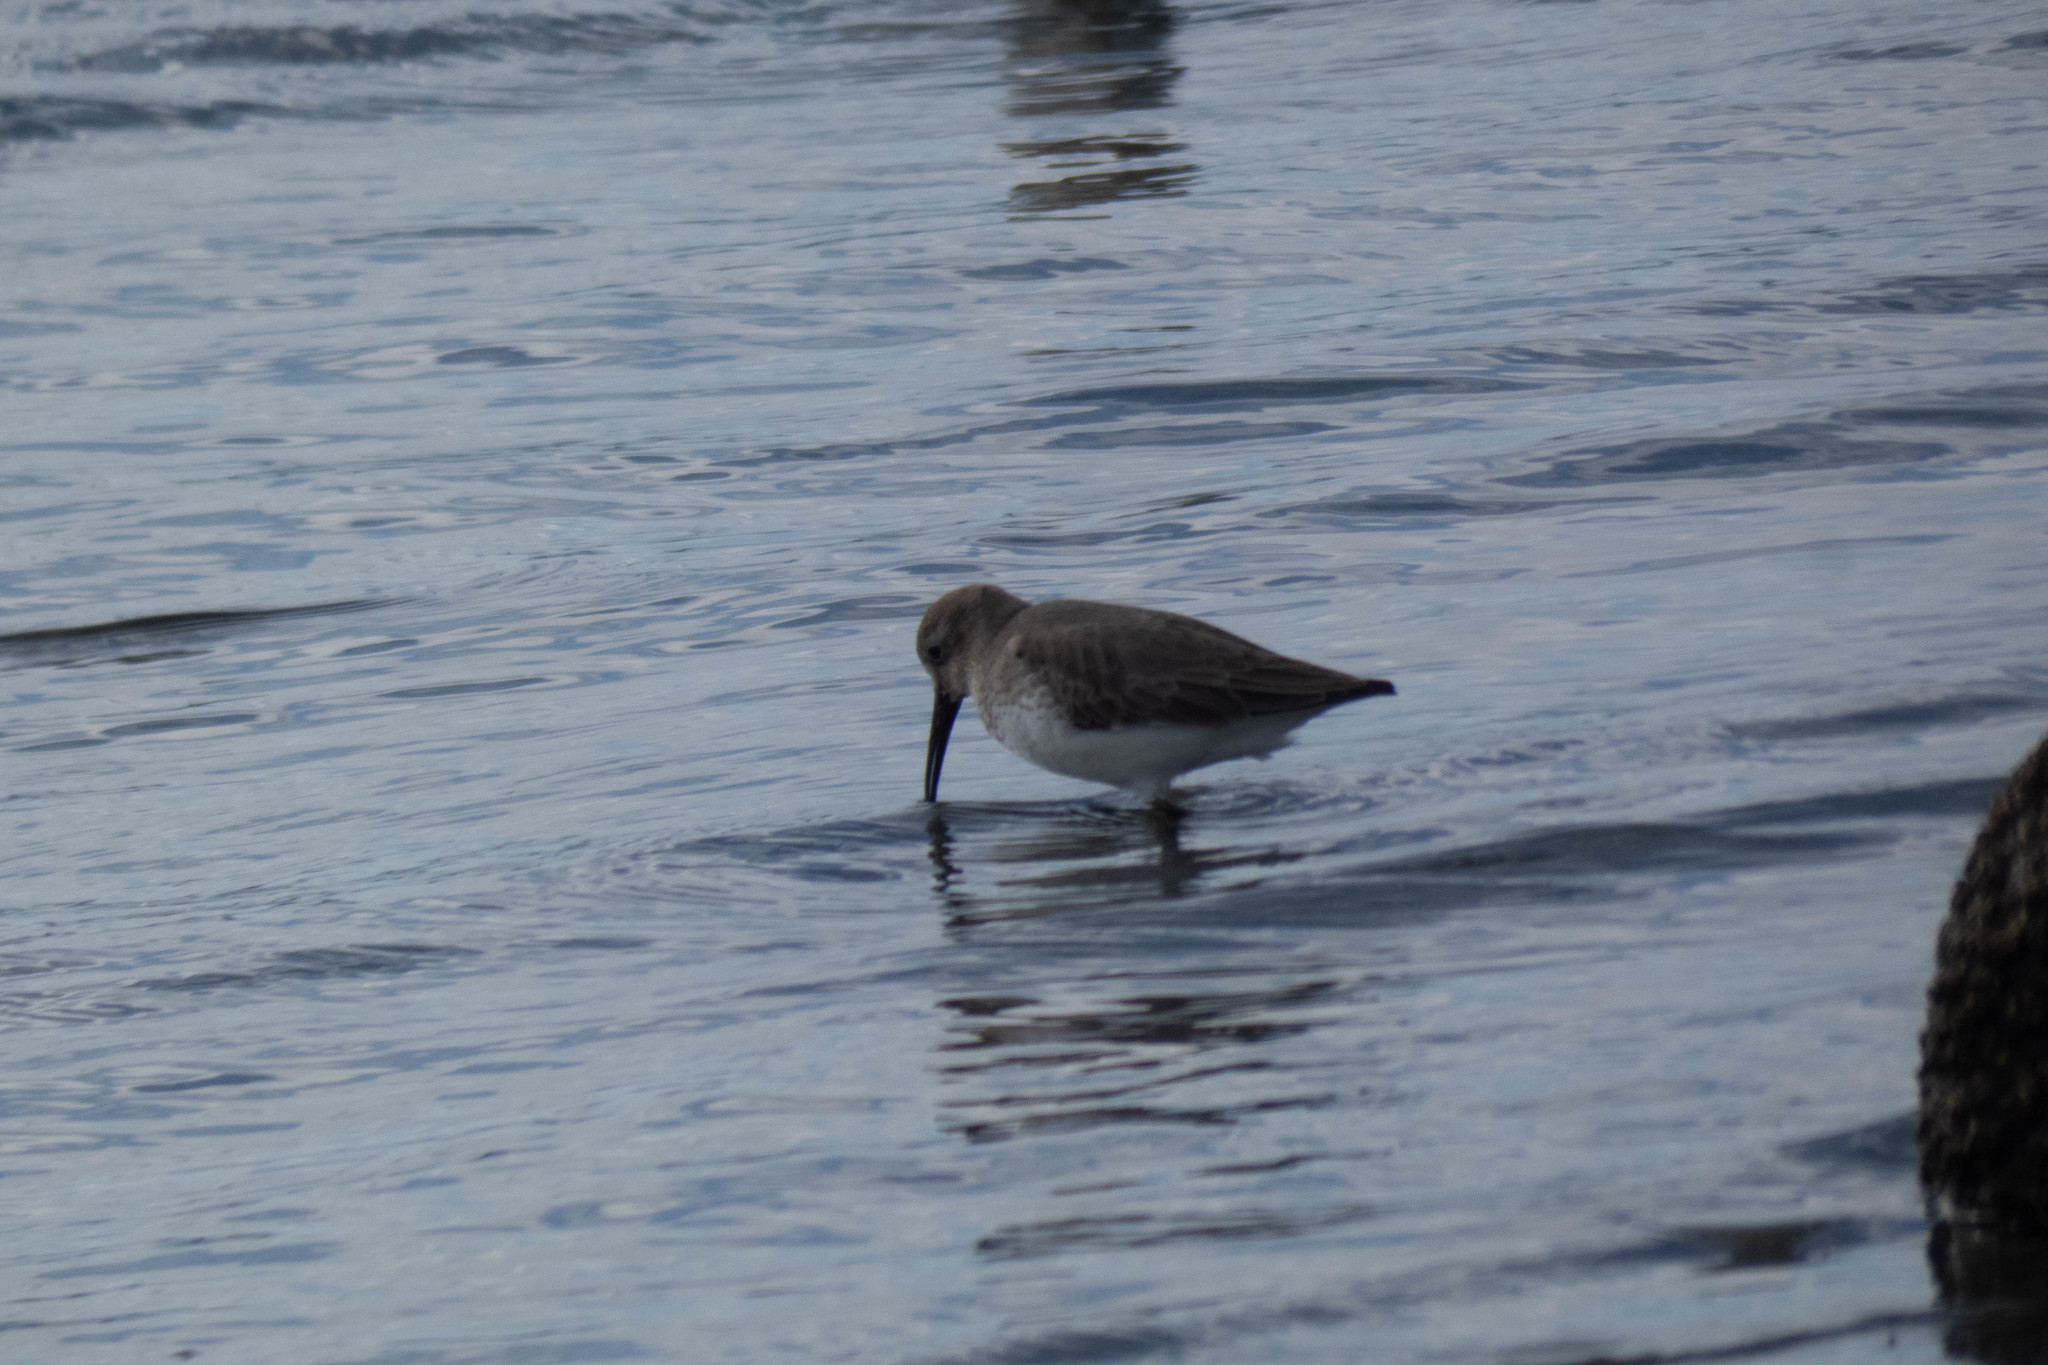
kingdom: Animalia
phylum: Chordata
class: Aves
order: Charadriiformes
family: Scolopacidae
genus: Calidris
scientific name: Calidris alpina
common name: Dunlin
